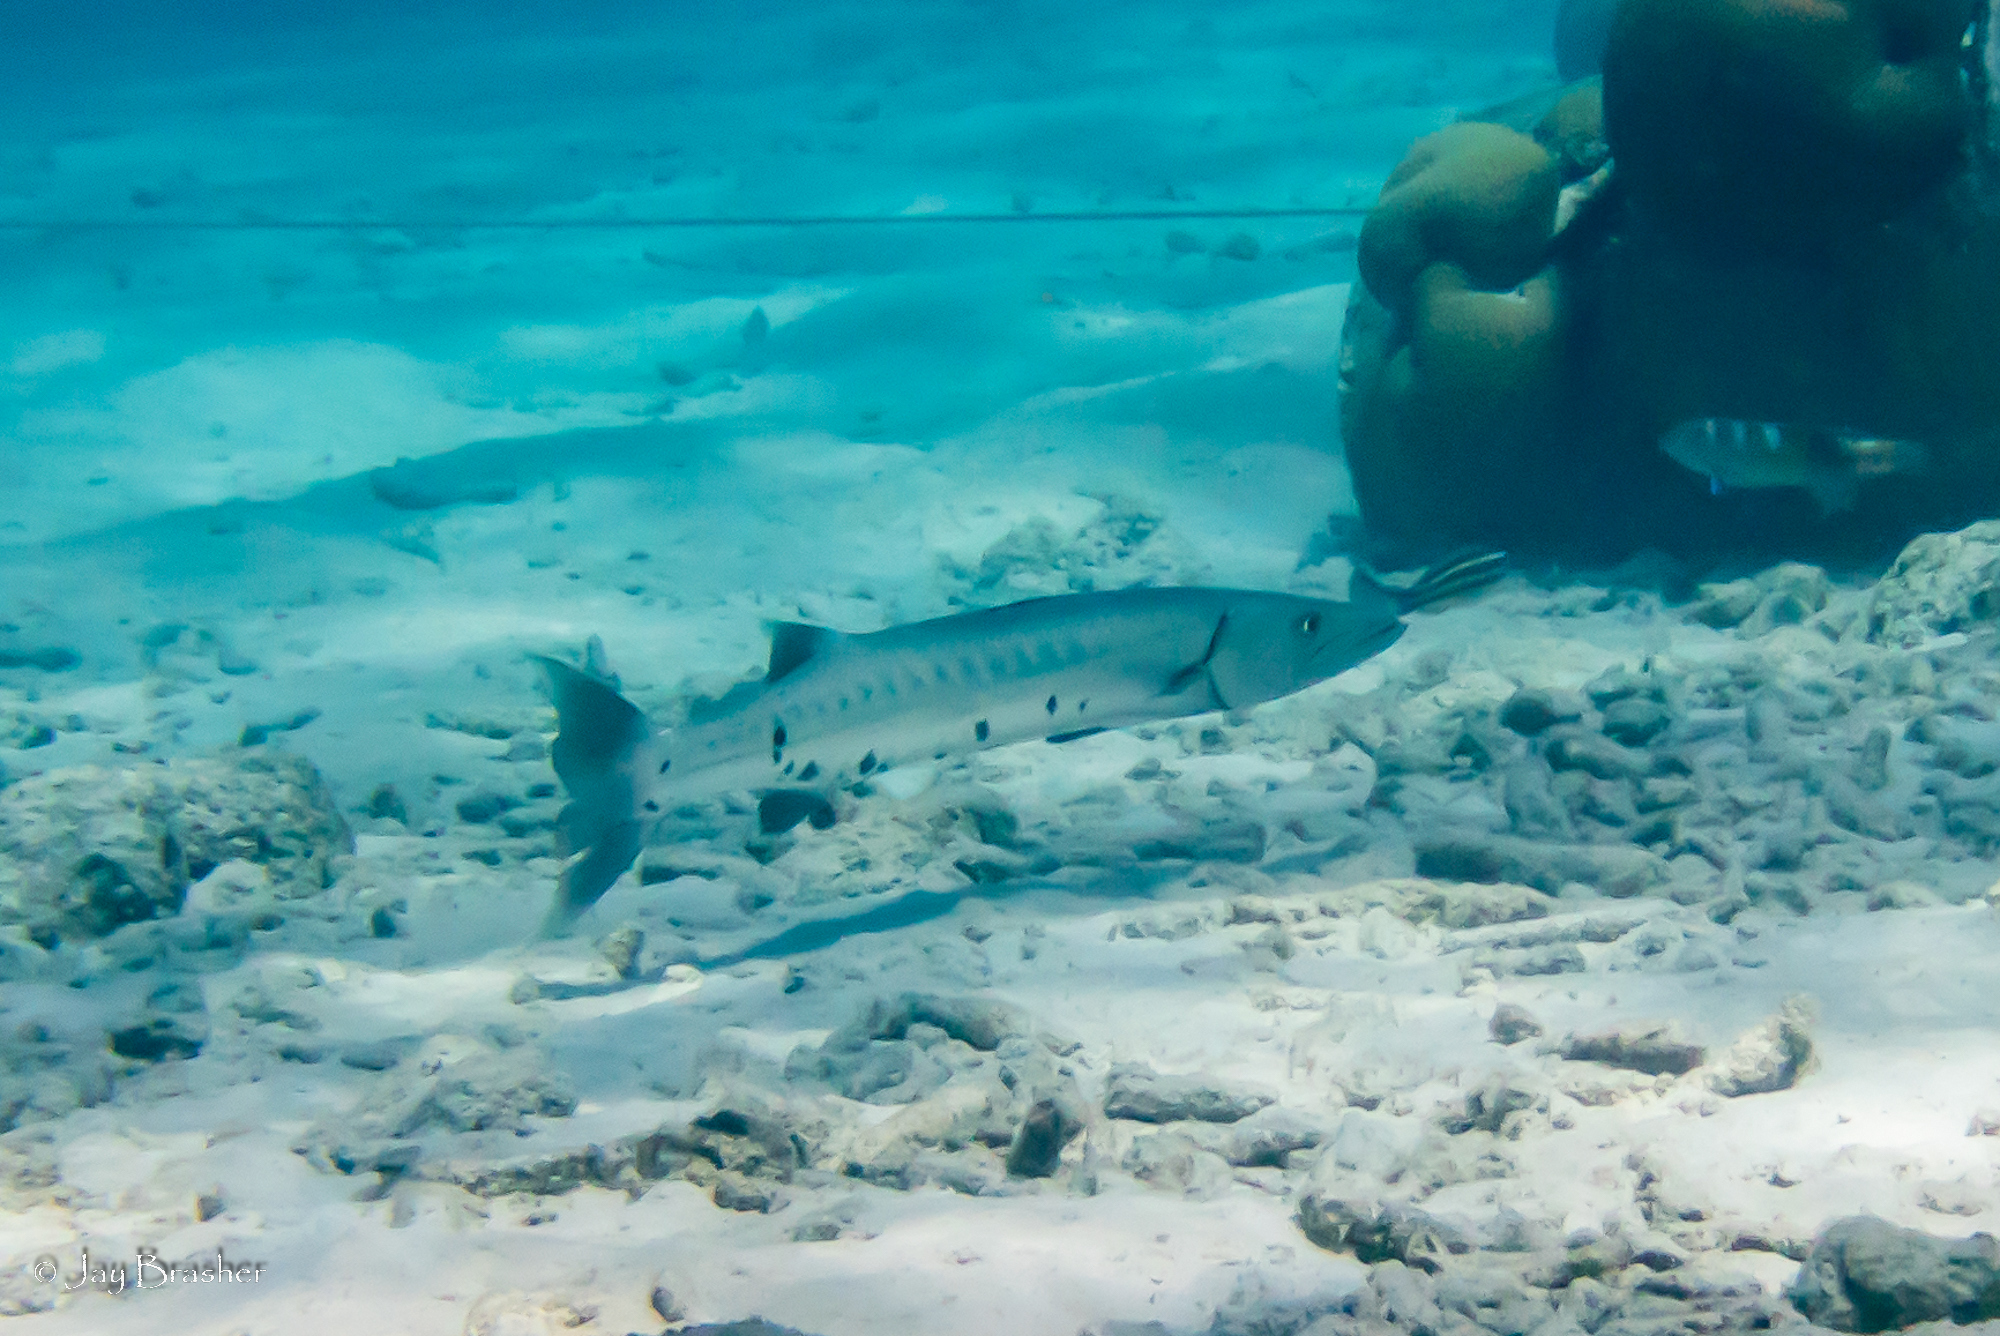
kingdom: Animalia
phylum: Chordata
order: Perciformes
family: Sphyraenidae
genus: Sphyraena
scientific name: Sphyraena barracuda
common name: Great barracuda
